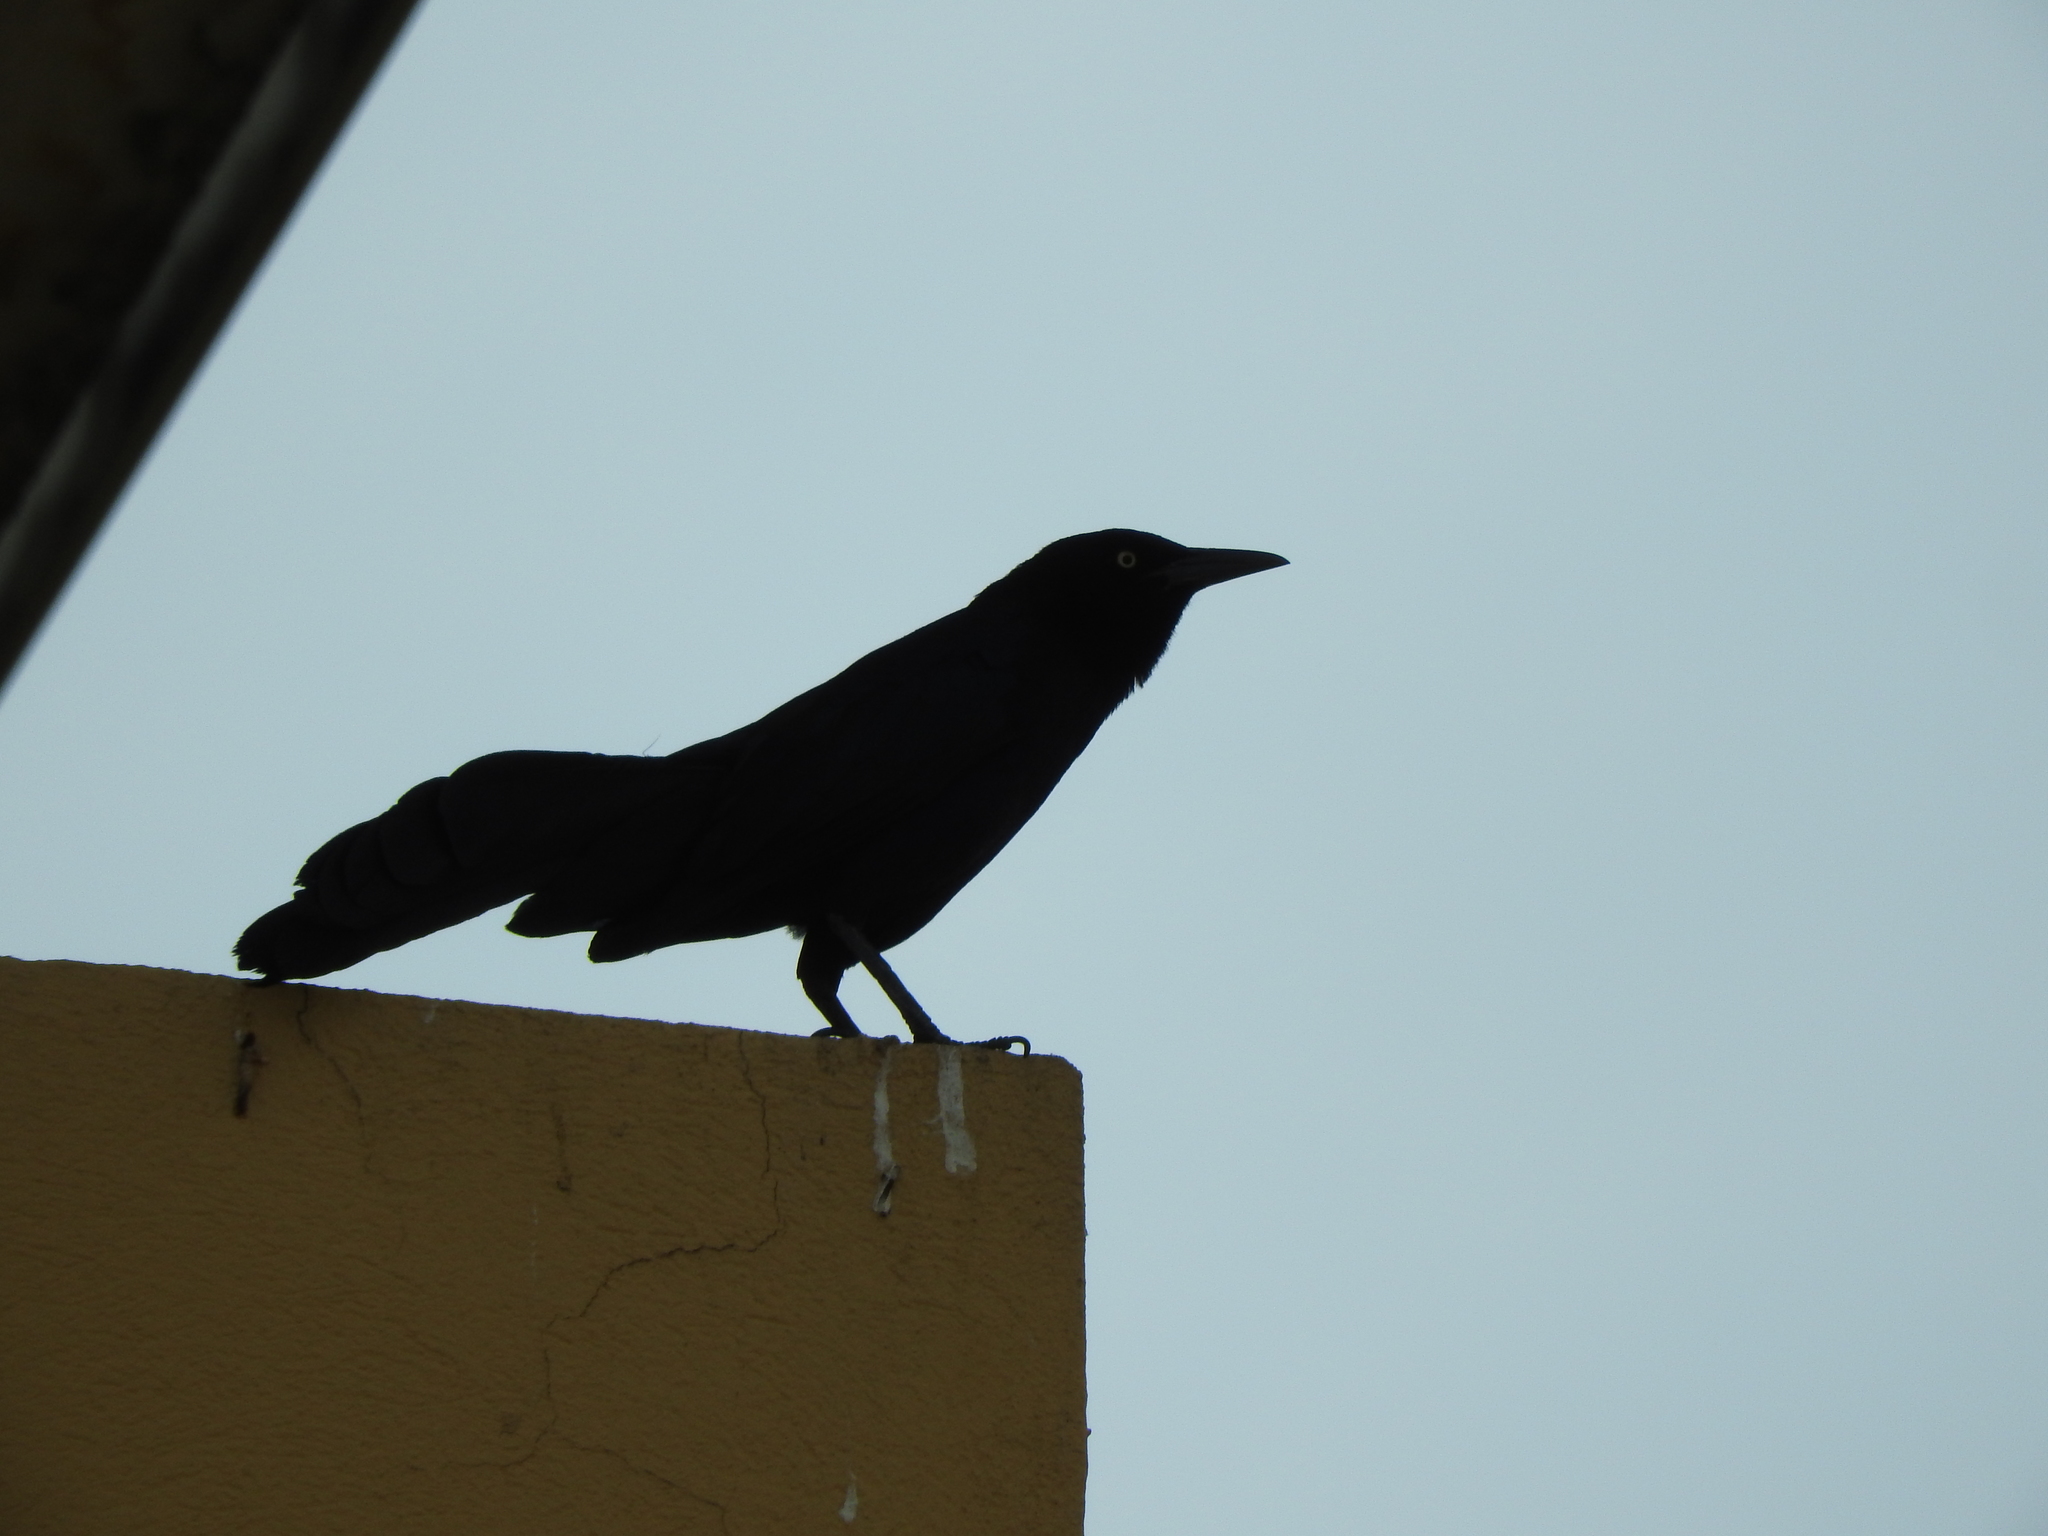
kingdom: Animalia
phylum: Chordata
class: Aves
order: Passeriformes
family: Icteridae
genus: Quiscalus
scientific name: Quiscalus mexicanus
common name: Great-tailed grackle
